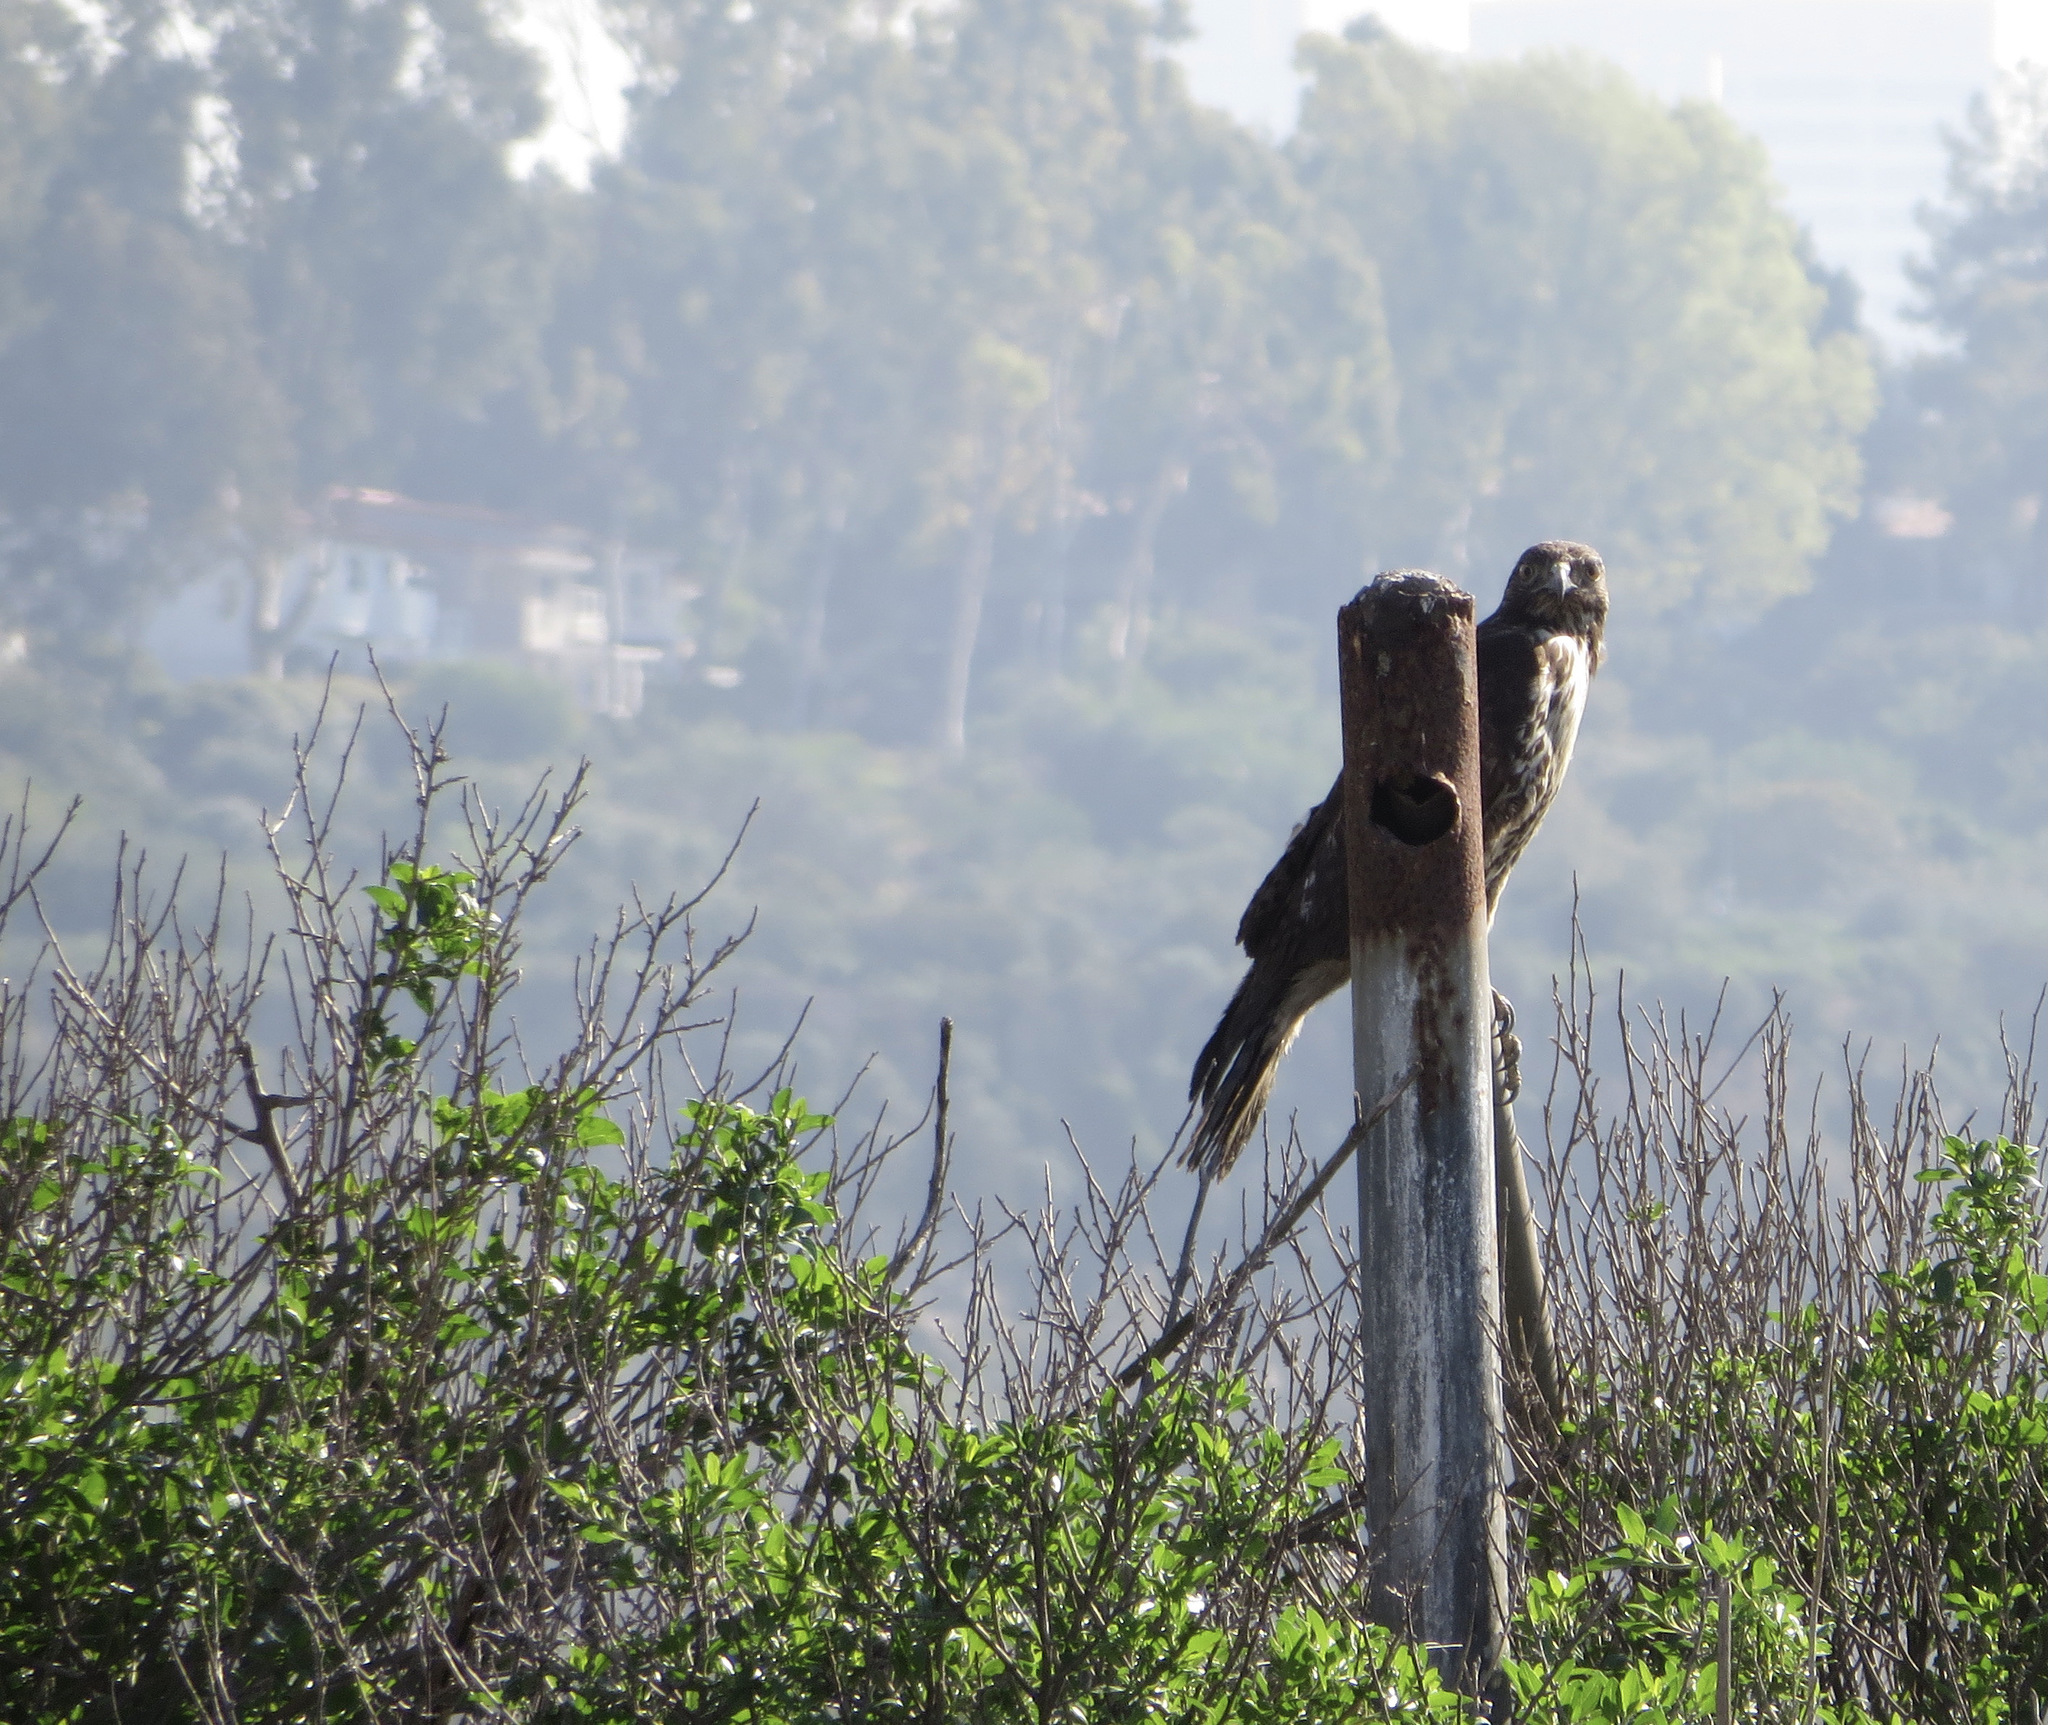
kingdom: Animalia
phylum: Chordata
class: Aves
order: Accipitriformes
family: Accipitridae
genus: Buteo
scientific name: Buteo jamaicensis
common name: Red-tailed hawk
